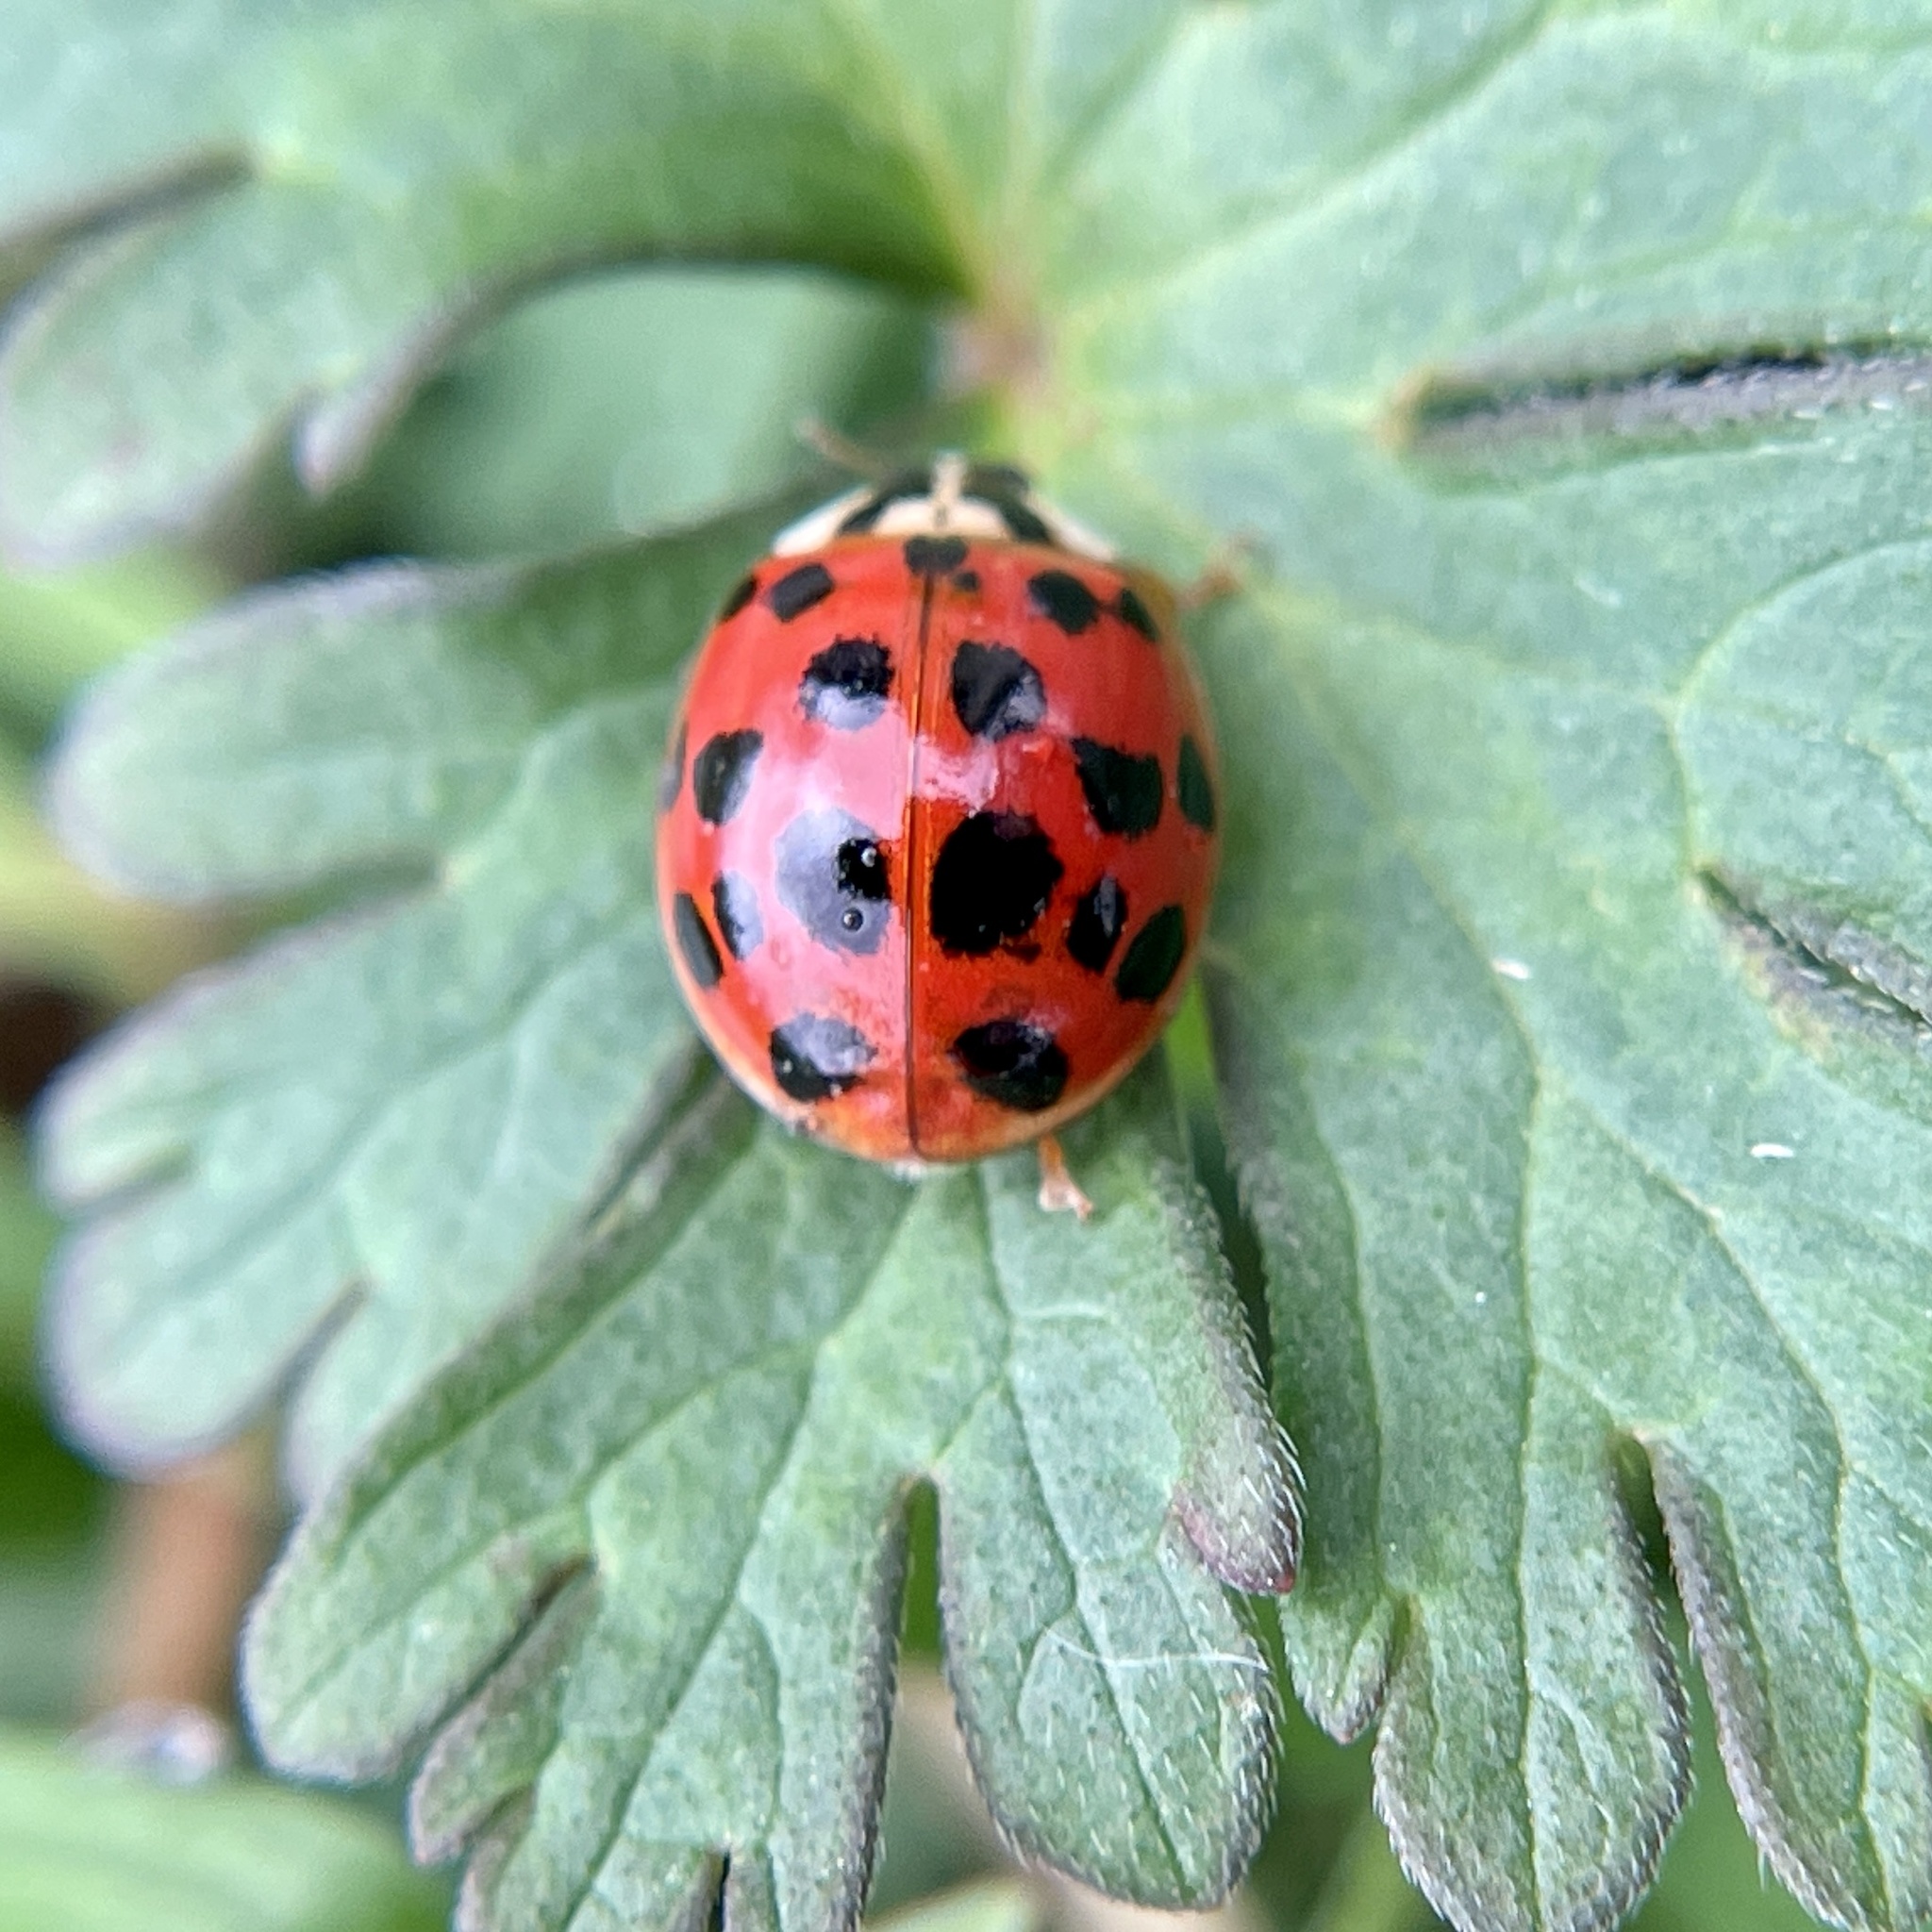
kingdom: Animalia
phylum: Arthropoda
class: Insecta
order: Coleoptera
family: Coccinellidae
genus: Harmonia
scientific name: Harmonia axyridis
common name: Harlequin ladybird
